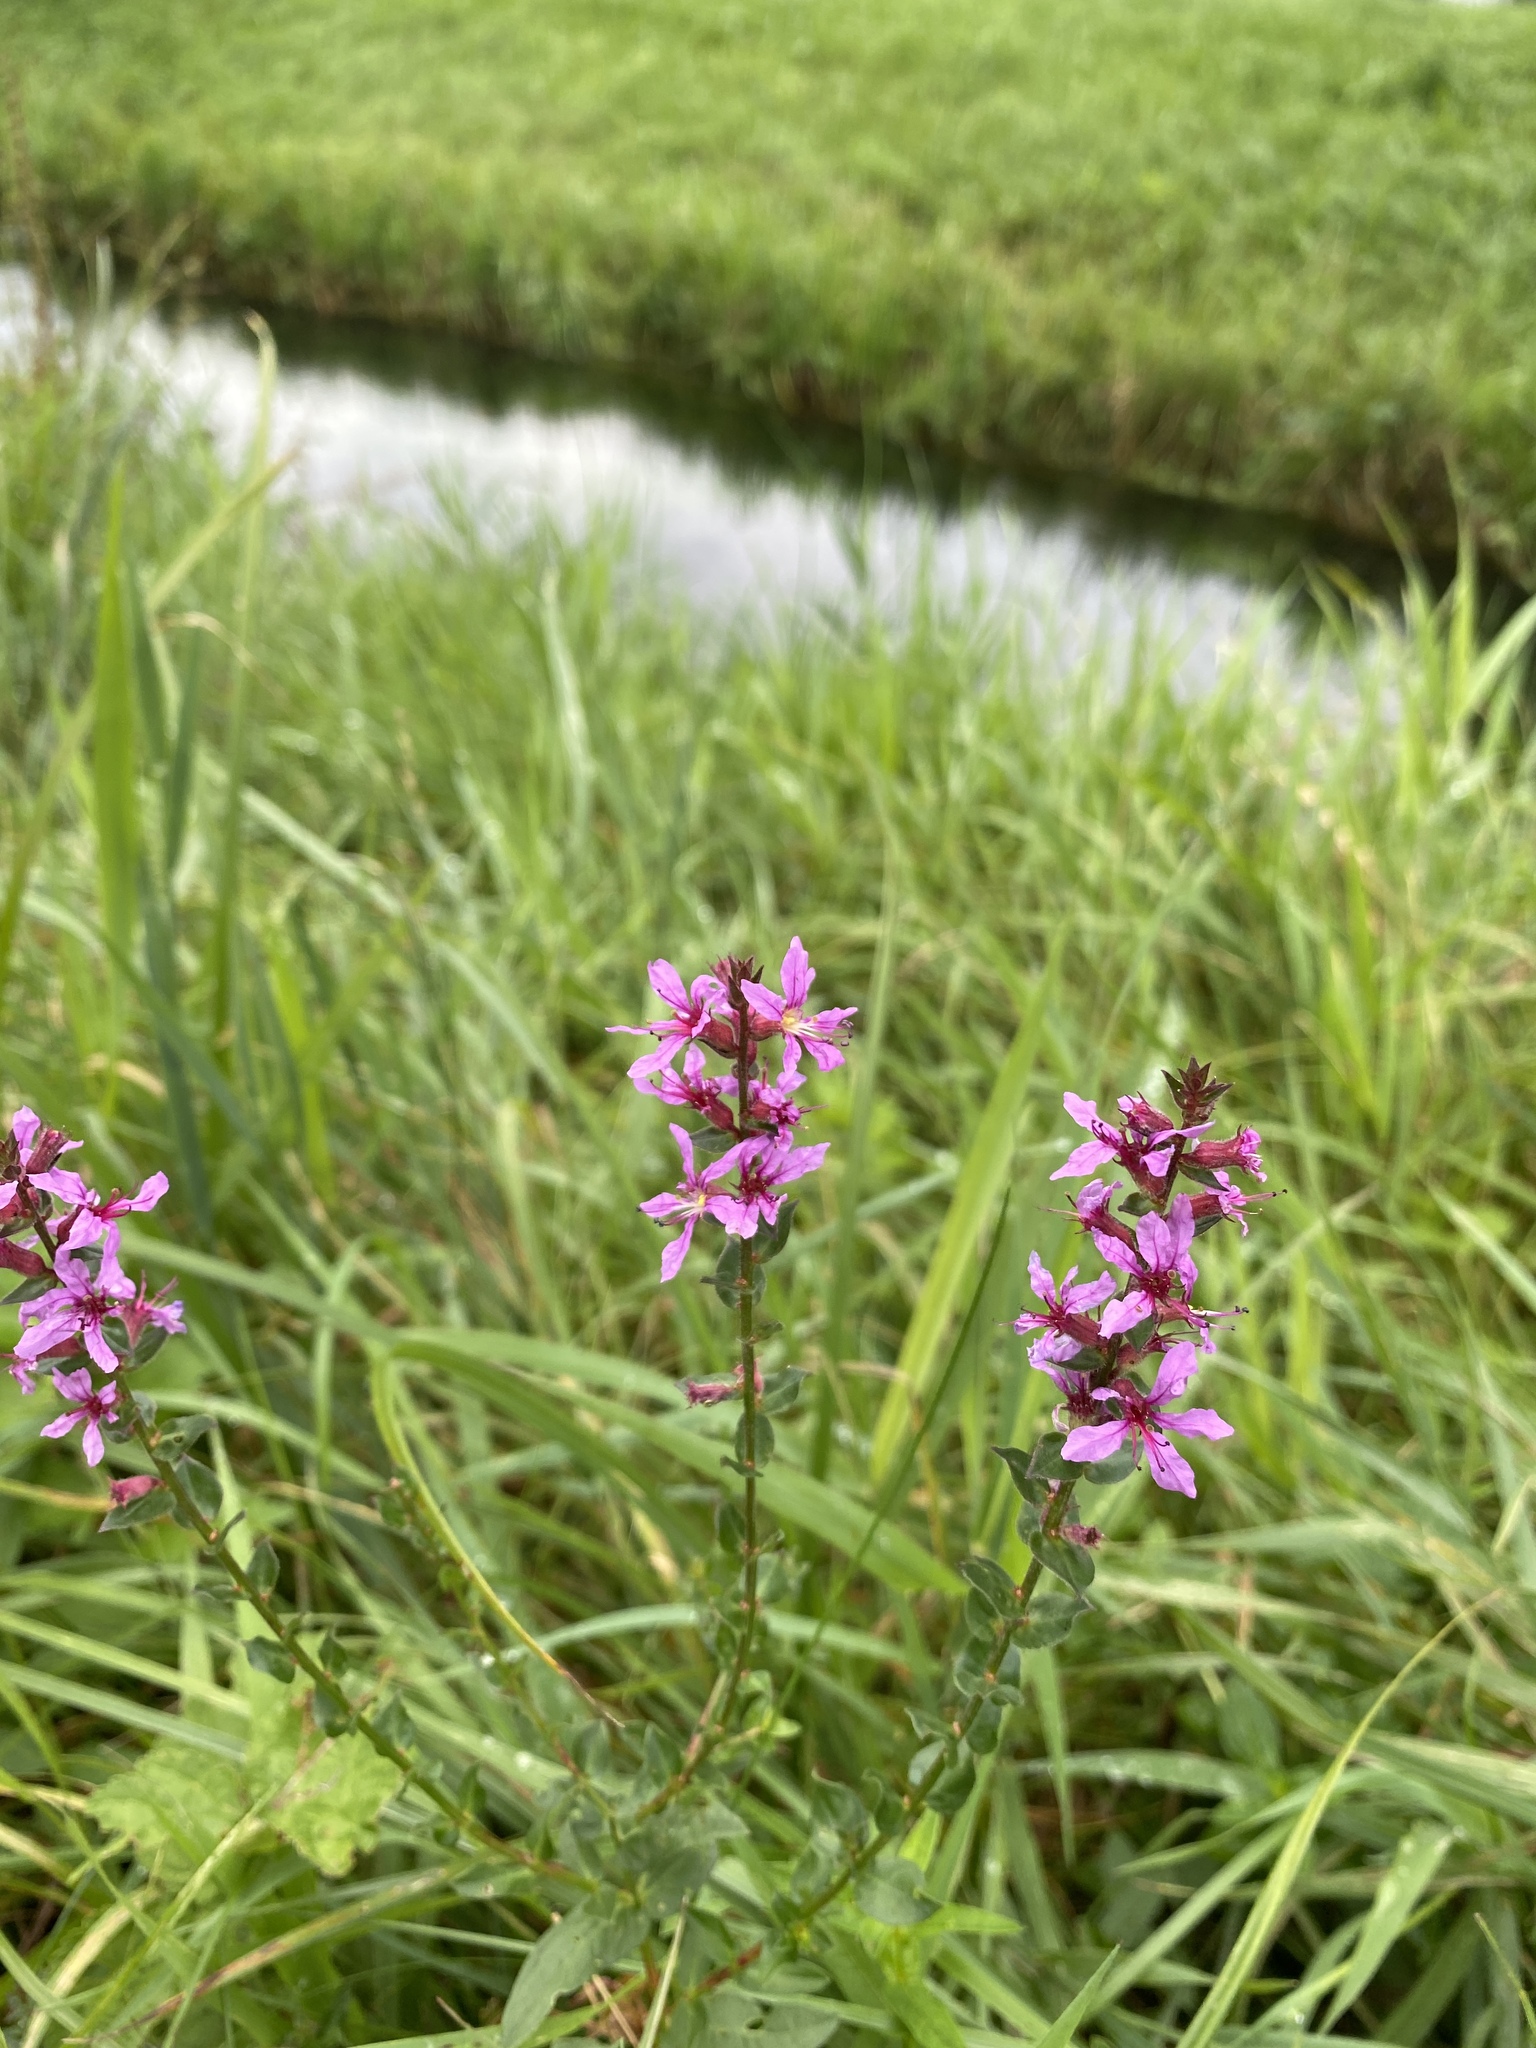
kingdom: Plantae
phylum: Tracheophyta
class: Magnoliopsida
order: Myrtales
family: Lythraceae
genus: Lythrum
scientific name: Lythrum salicaria
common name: Purple loosestrife
